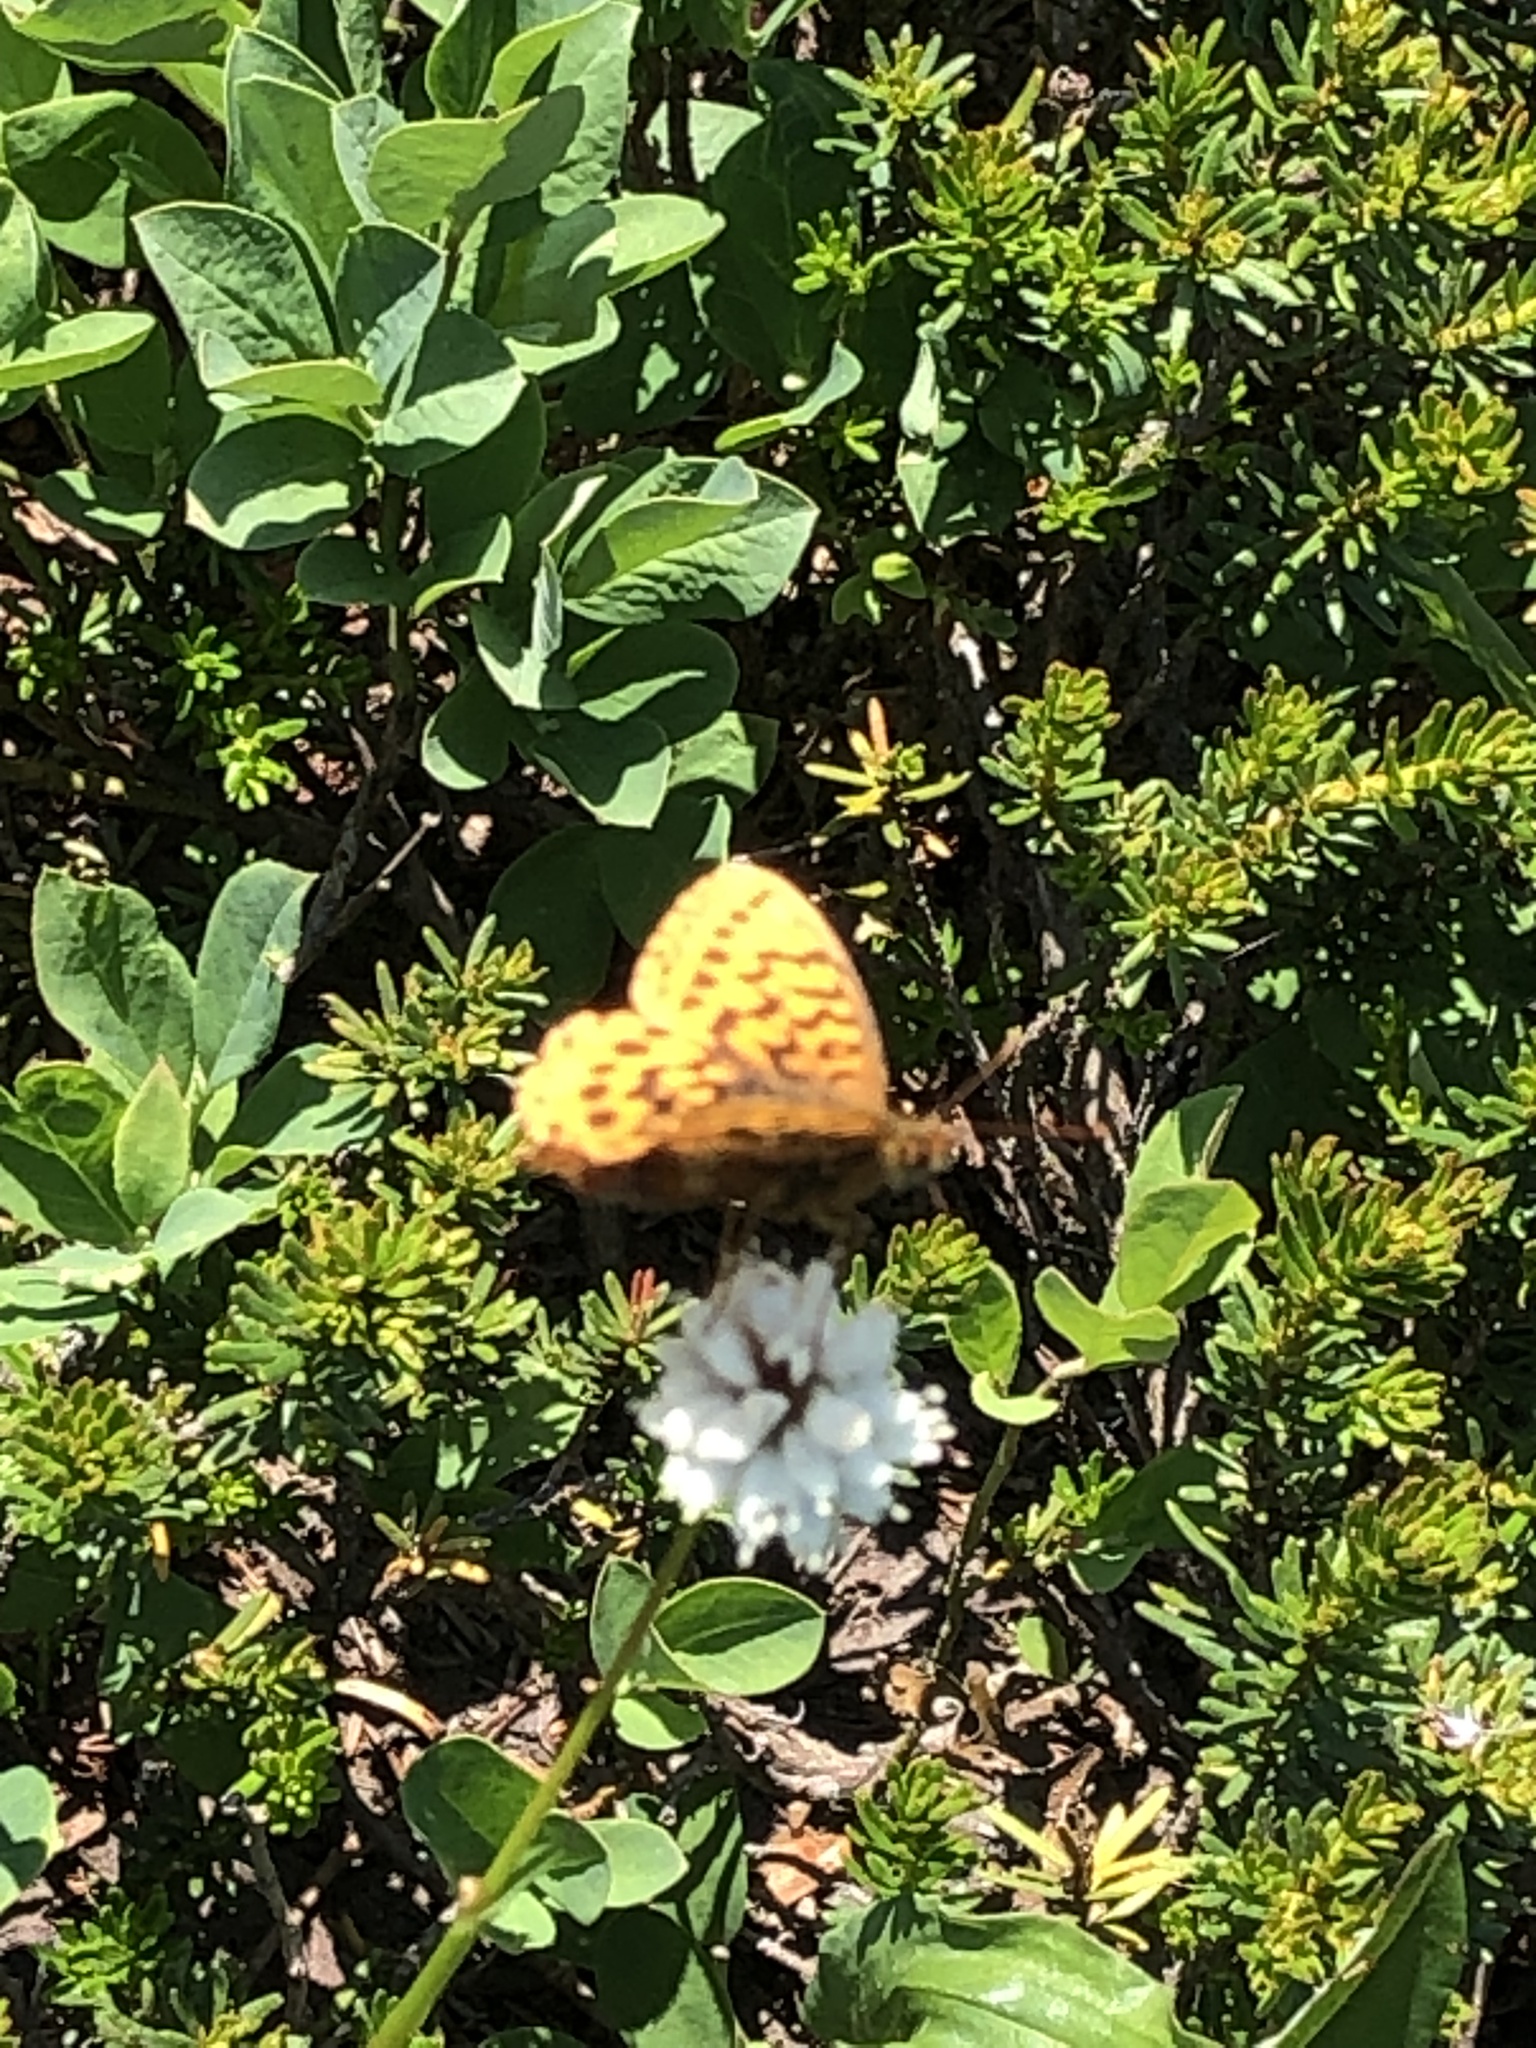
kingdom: Animalia
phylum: Arthropoda
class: Insecta
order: Lepidoptera
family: Nymphalidae
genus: Boloria
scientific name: Boloria epithore
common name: Pacific fritillary
